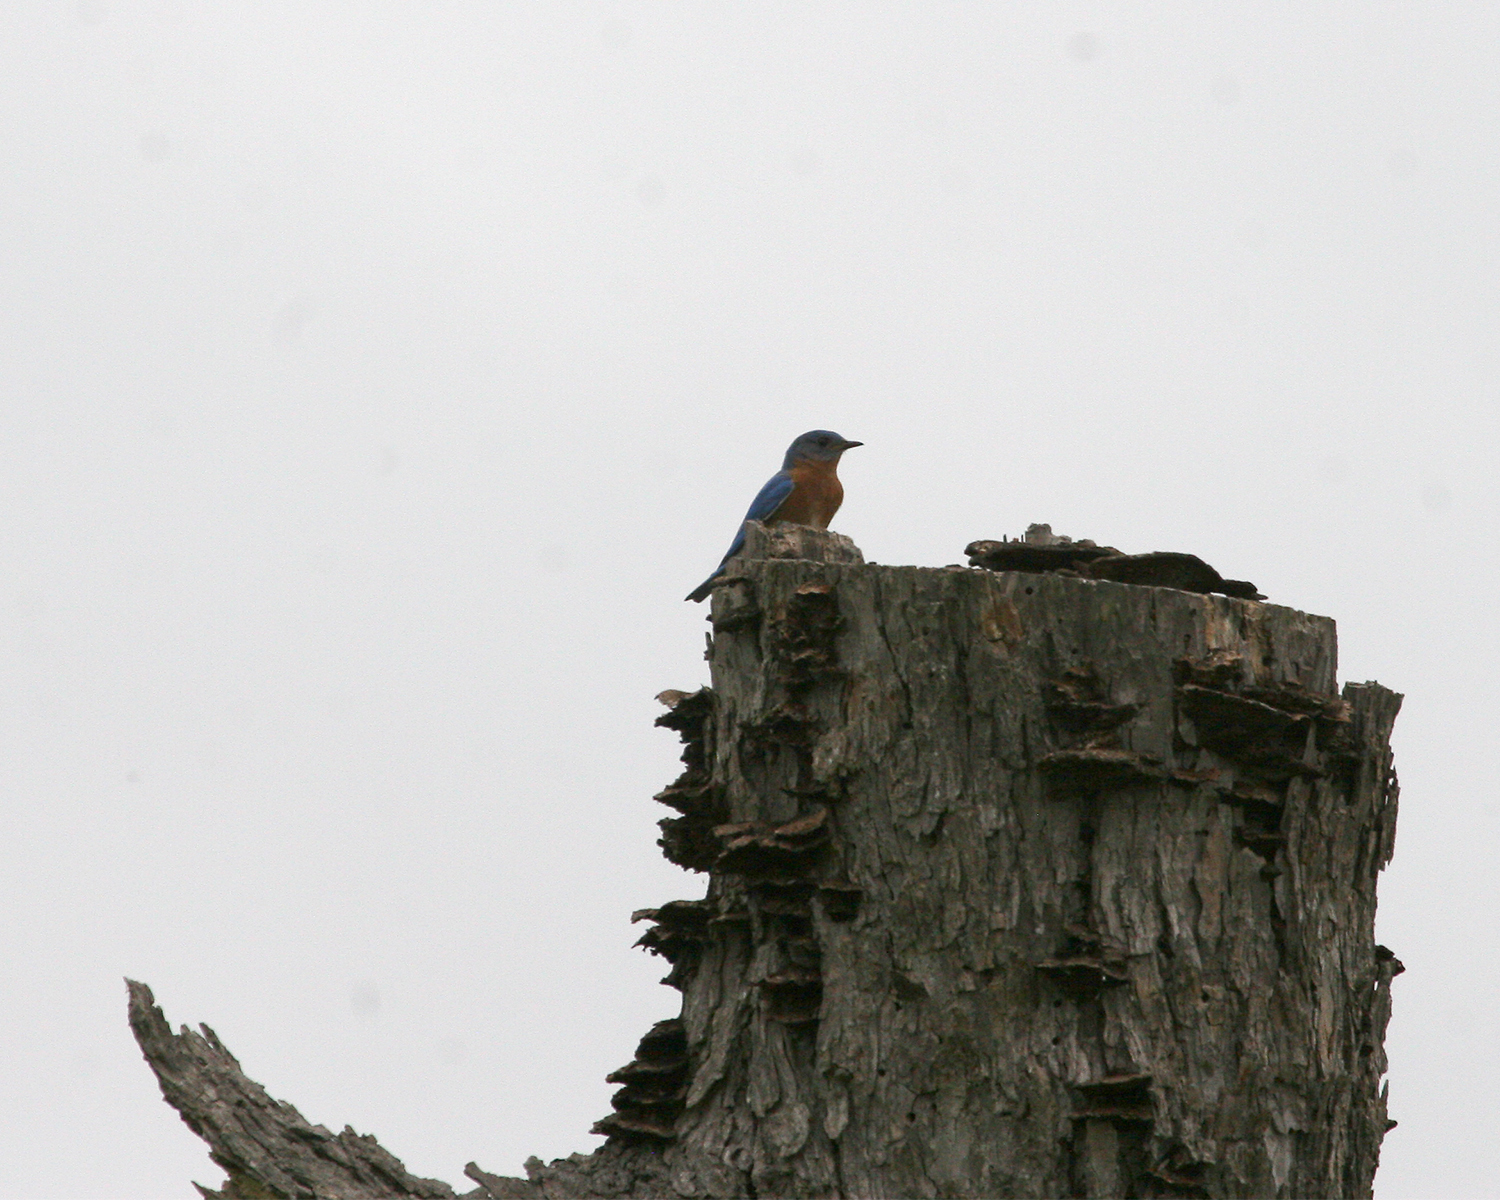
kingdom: Animalia
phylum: Chordata
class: Aves
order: Passeriformes
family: Turdidae
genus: Sialia
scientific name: Sialia sialis
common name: Eastern bluebird
